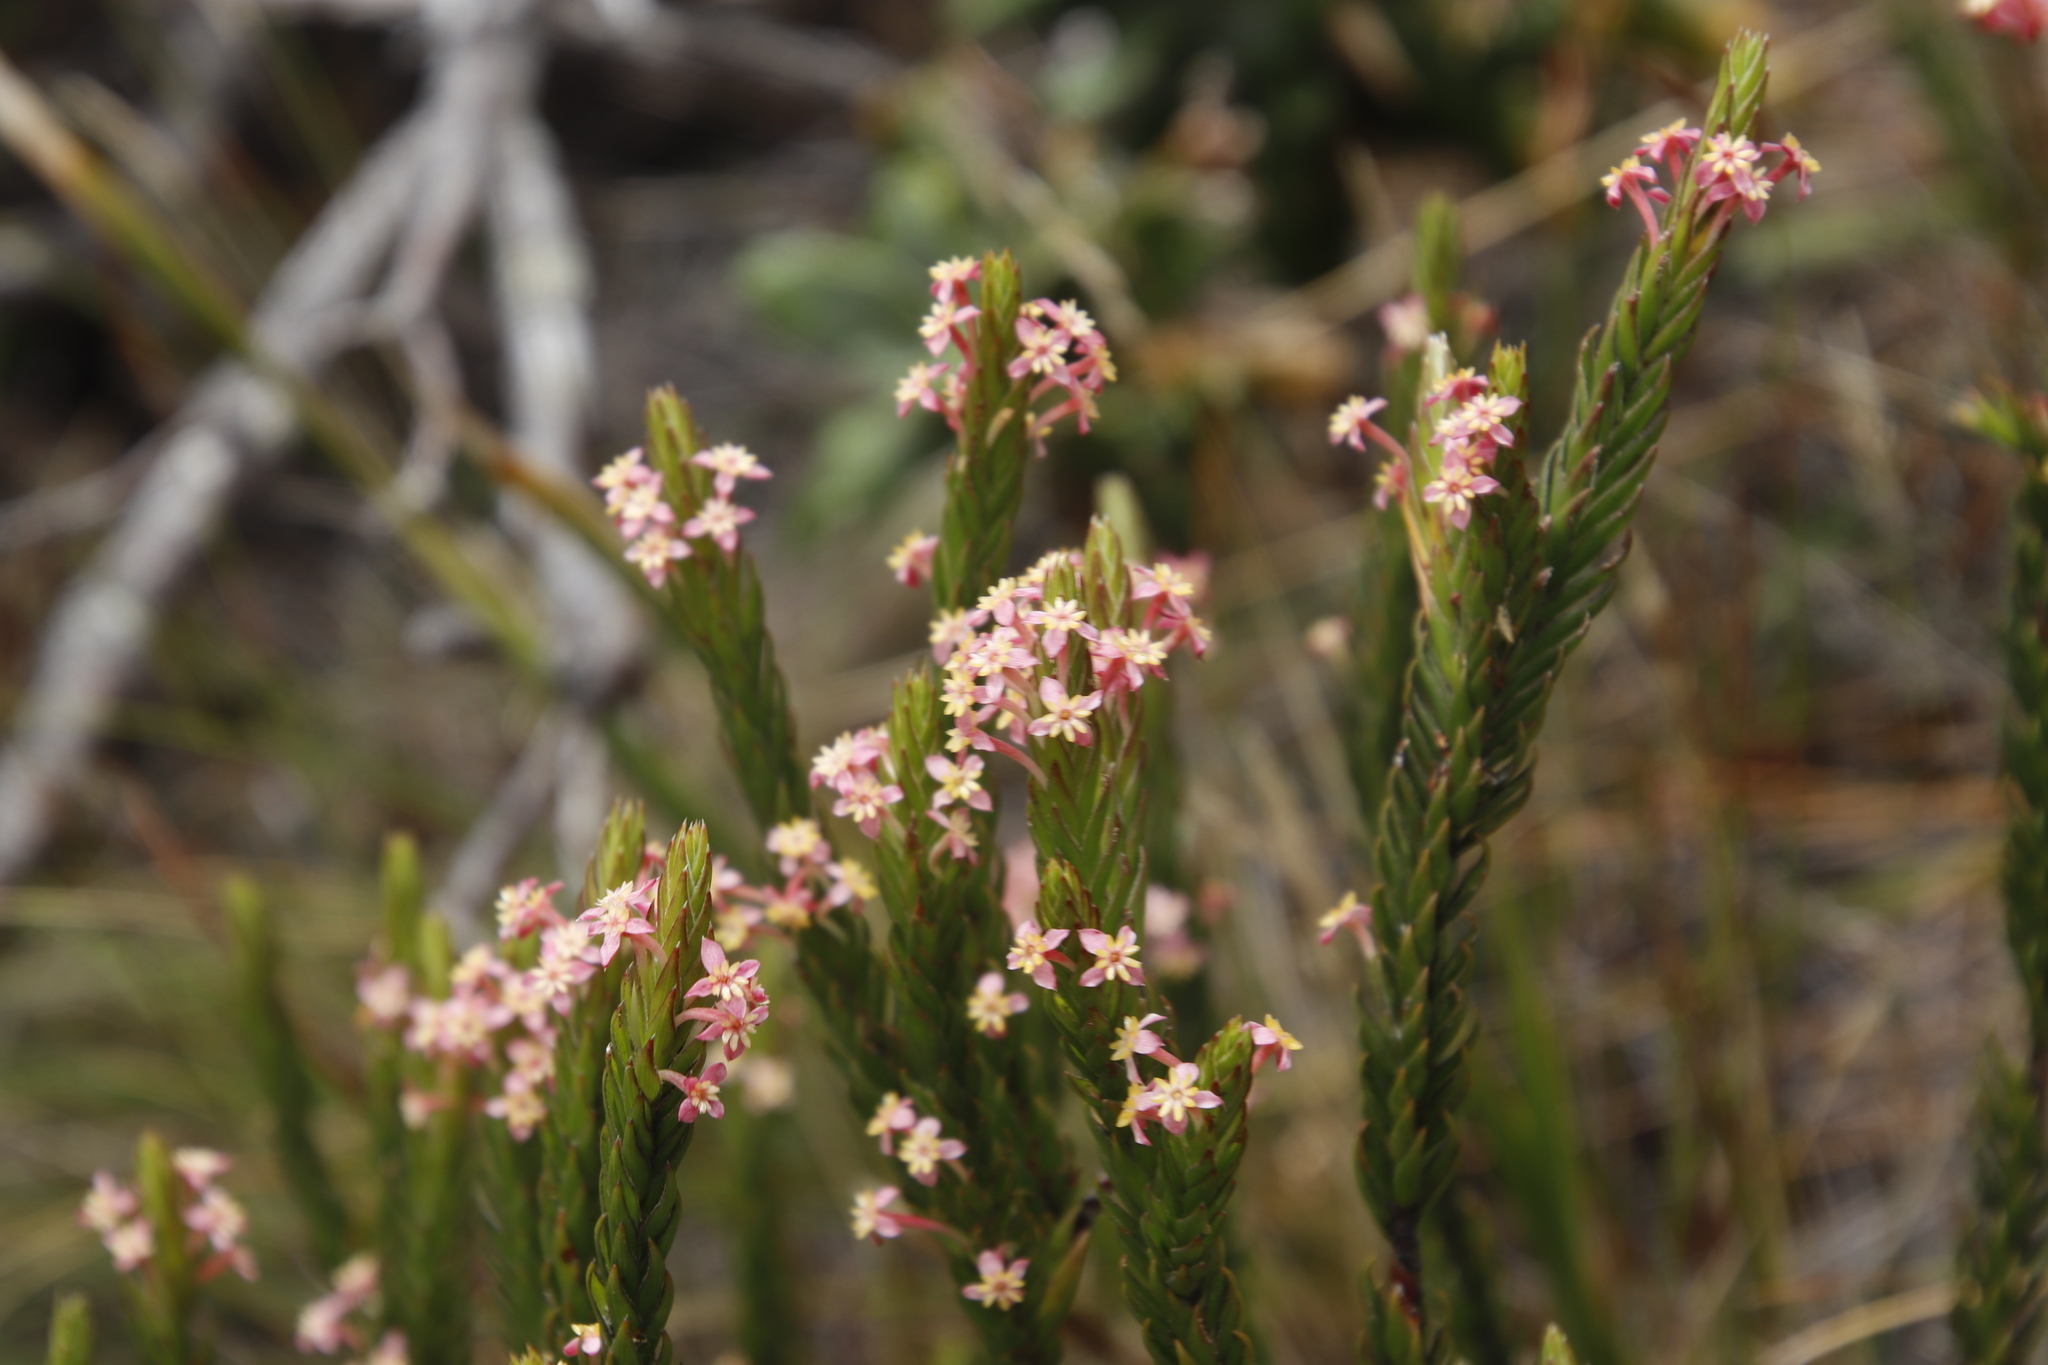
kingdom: Plantae
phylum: Tracheophyta
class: Magnoliopsida
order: Malvales
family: Thymelaeaceae
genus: Struthiola
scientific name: Struthiola ciliata
